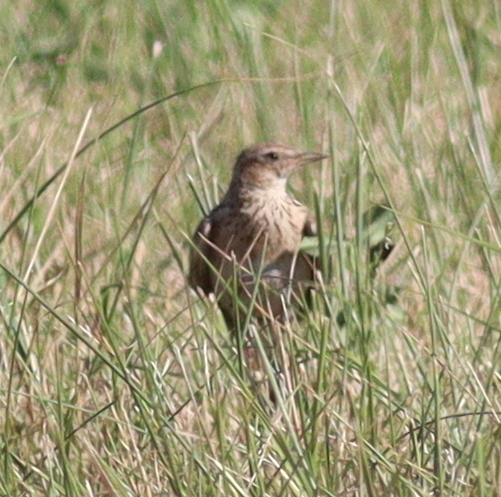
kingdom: Animalia
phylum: Chordata
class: Aves
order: Passeriformes
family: Alaudidae
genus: Alauda
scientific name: Alauda arvensis
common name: Eurasian skylark
